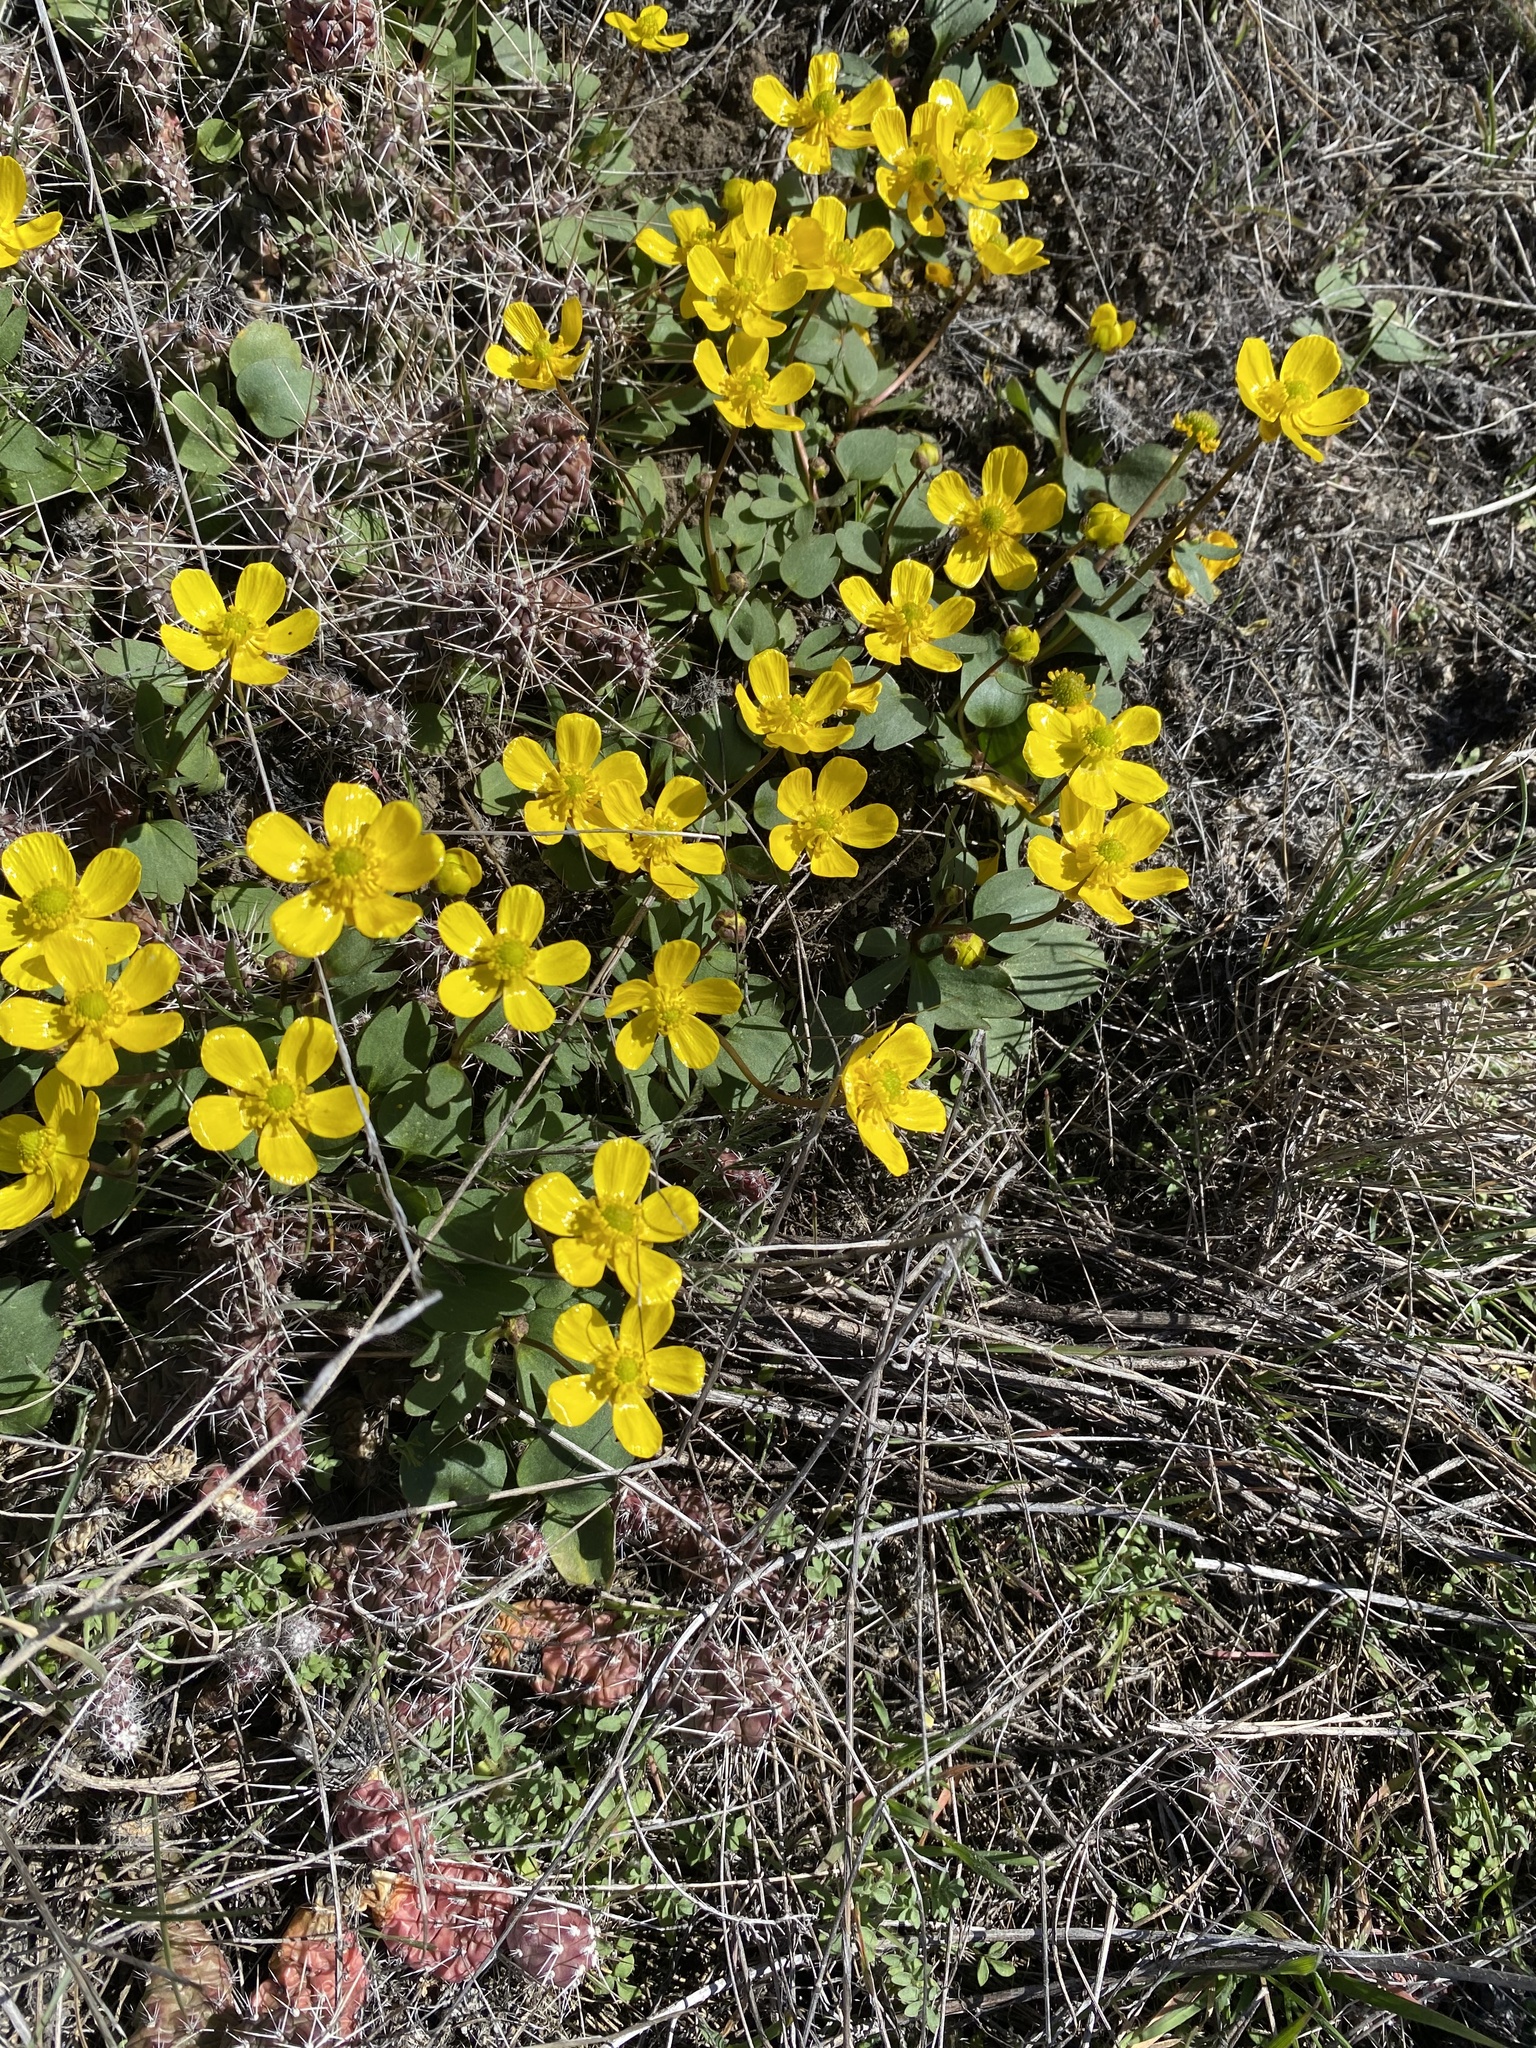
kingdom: Plantae
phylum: Tracheophyta
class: Magnoliopsida
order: Ranunculales
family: Ranunculaceae
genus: Ranunculus
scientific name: Ranunculus glaberrimus
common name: Sagebrush buttercup
